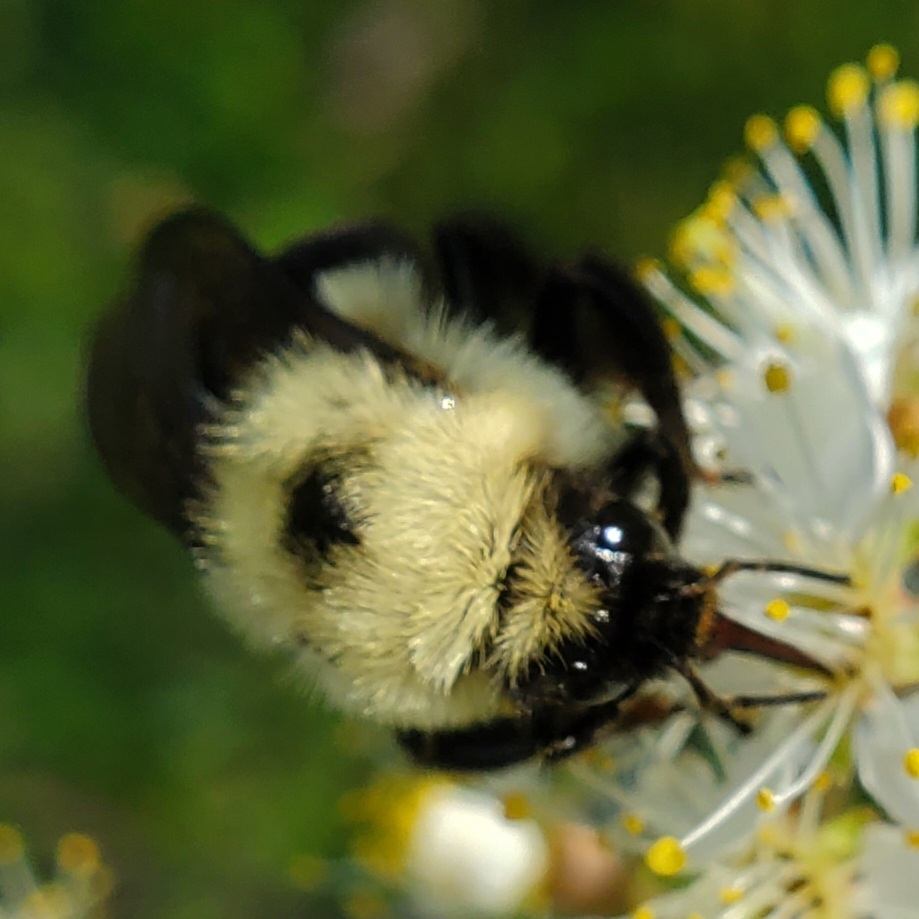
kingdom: Animalia
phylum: Arthropoda
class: Insecta
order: Hymenoptera
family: Apidae
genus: Bombus
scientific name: Bombus bimaculatus
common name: Two-spotted bumble bee
